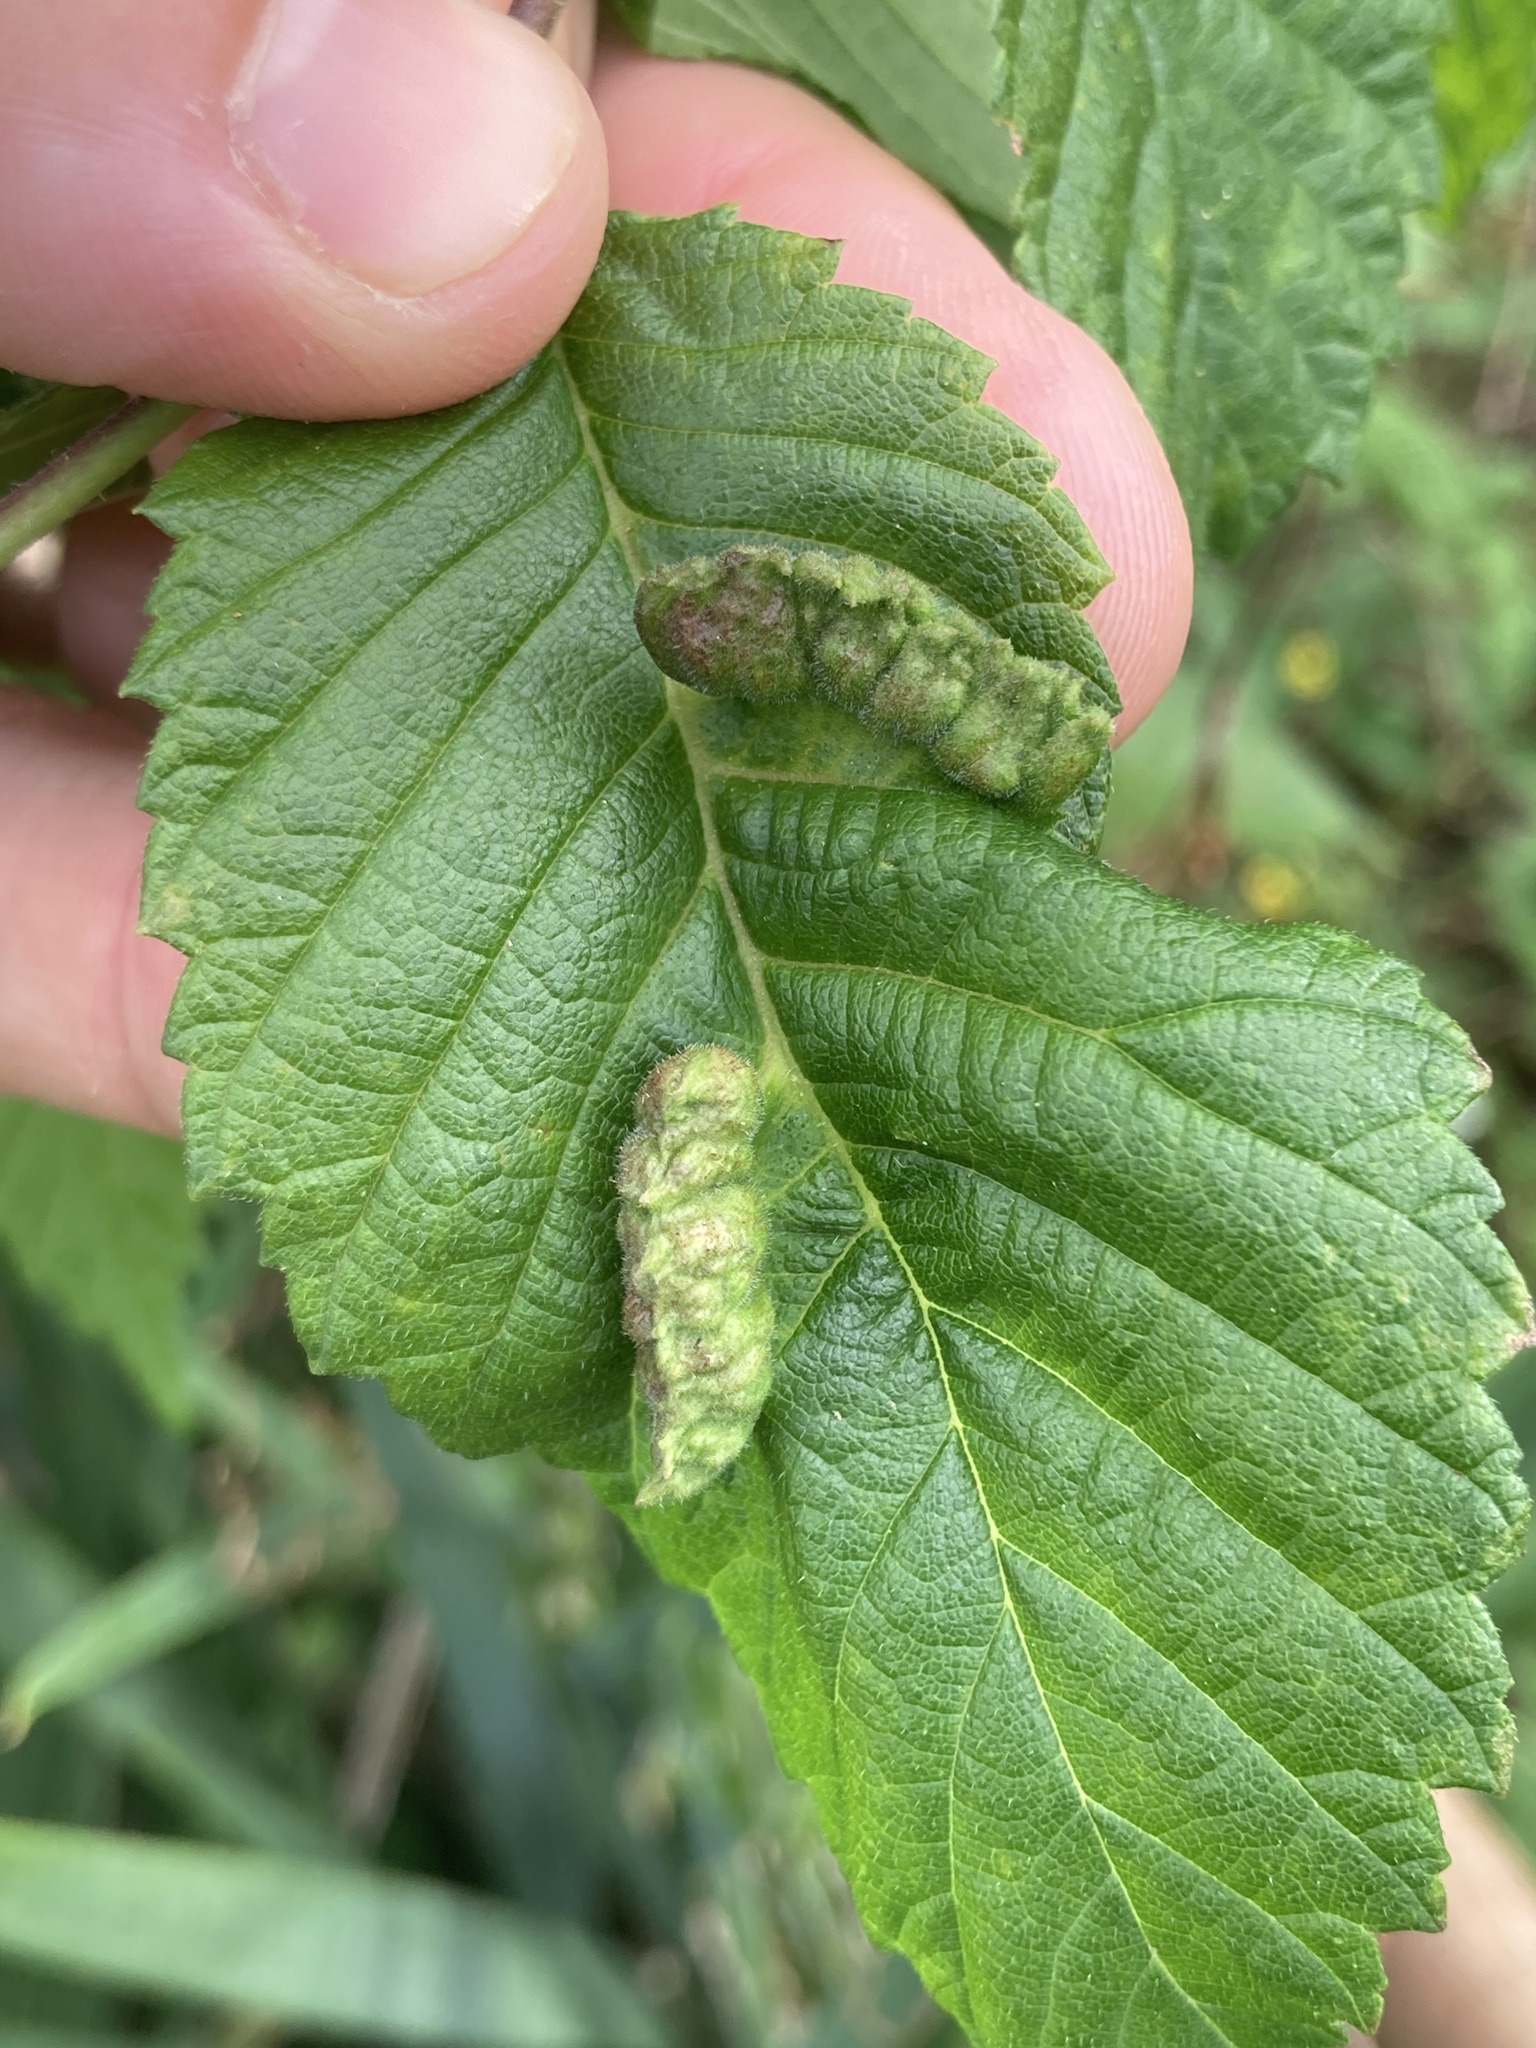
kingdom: Animalia
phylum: Arthropoda
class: Insecta
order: Hemiptera
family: Aphididae
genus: Colopha
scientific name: Colopha ulmicola
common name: Elm cockscombgall aphid
